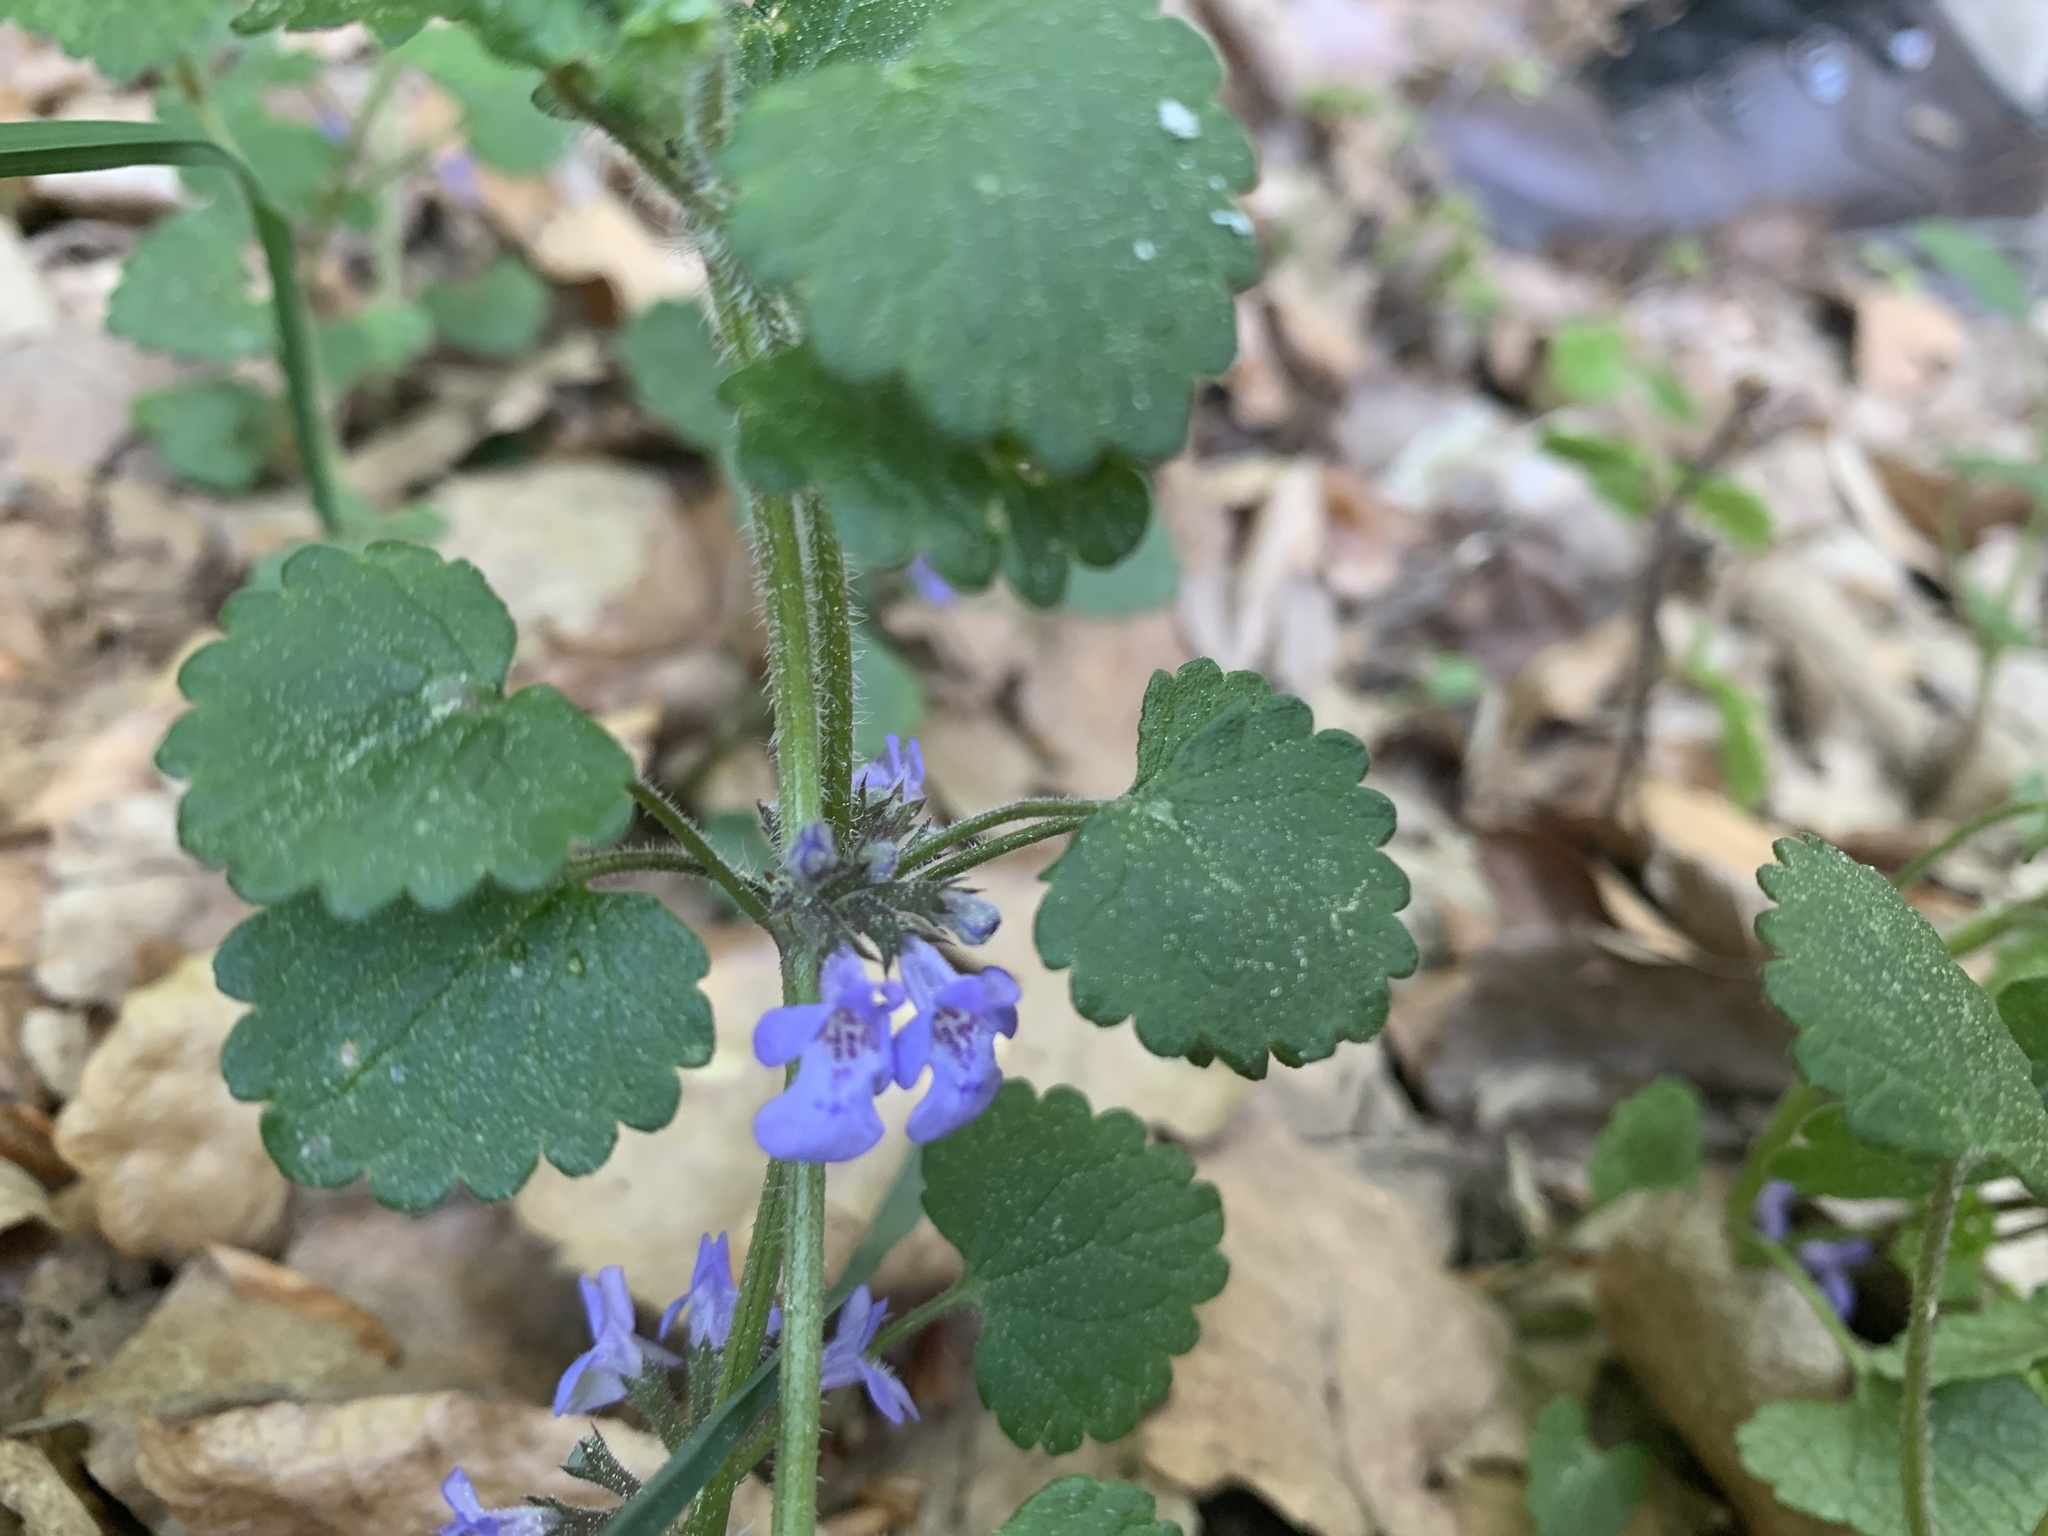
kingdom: Plantae
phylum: Tracheophyta
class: Magnoliopsida
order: Lamiales
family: Lamiaceae
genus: Glechoma
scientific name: Glechoma hederacea
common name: Ground ivy
